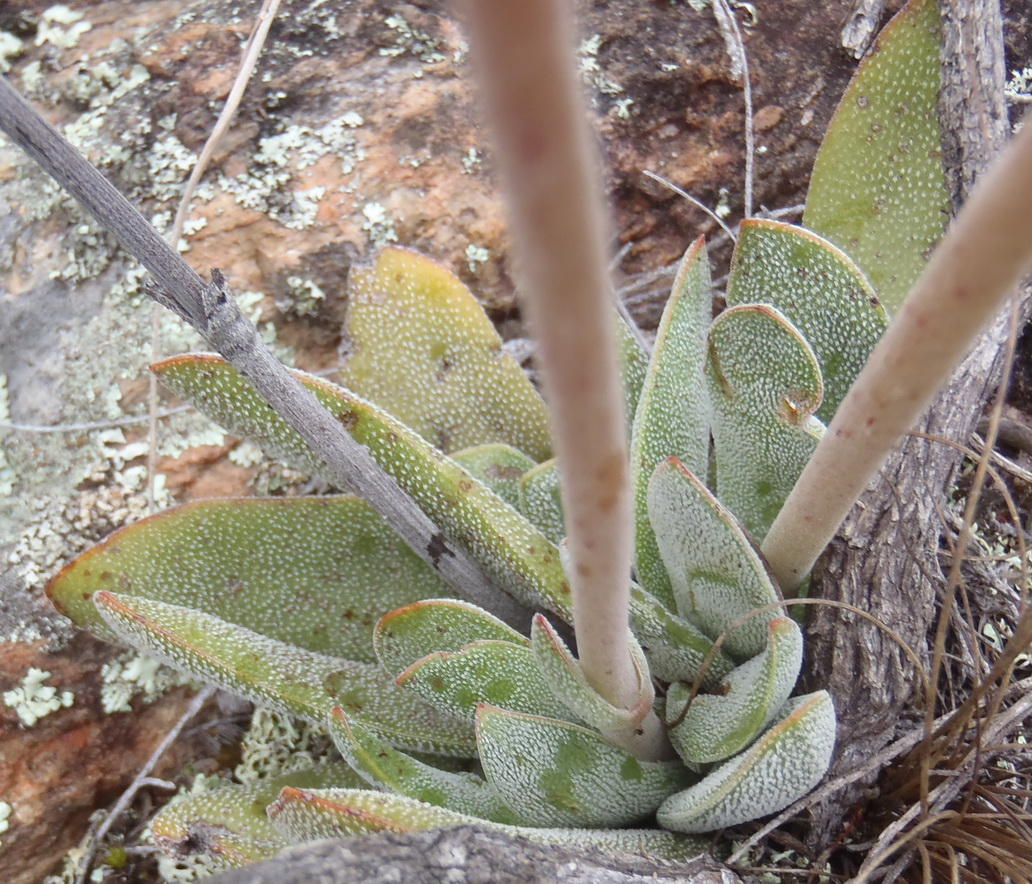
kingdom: Plantae
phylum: Tracheophyta
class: Magnoliopsida
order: Saxifragales
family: Crassulaceae
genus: Crassula
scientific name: Crassula nudicaulis
